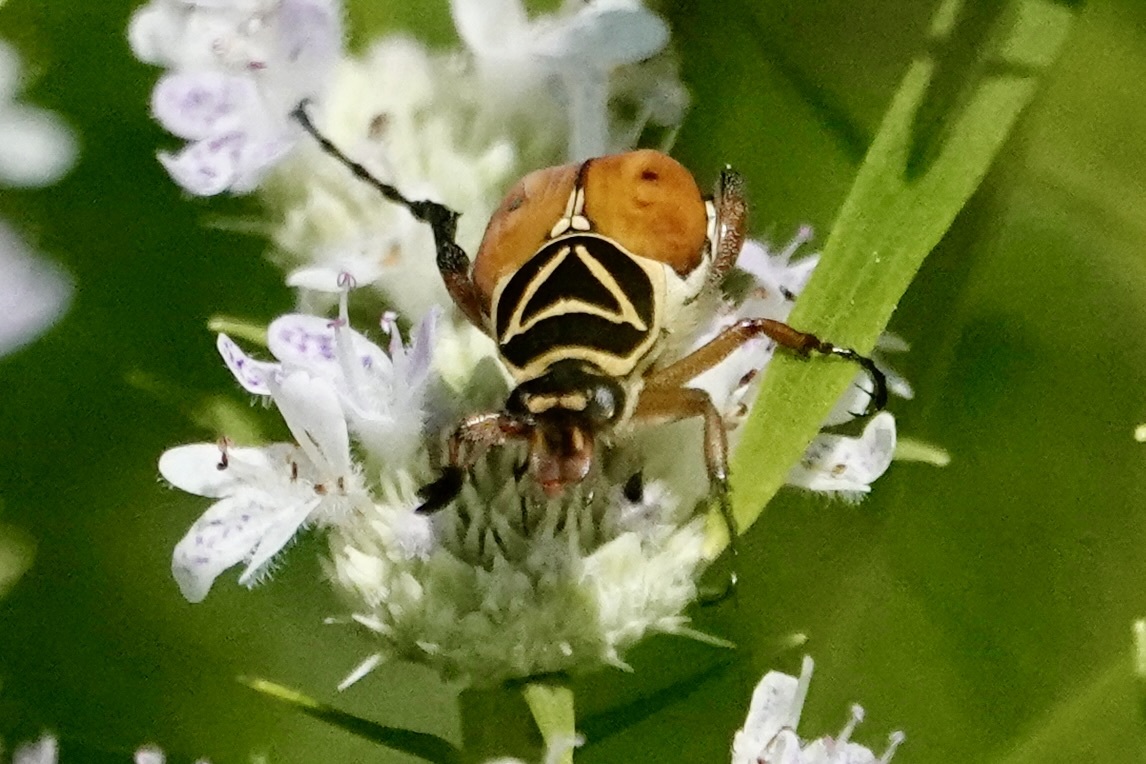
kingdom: Animalia
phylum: Arthropoda
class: Insecta
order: Coleoptera
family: Scarabaeidae
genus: Trigonopeltastes
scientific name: Trigonopeltastes delta
